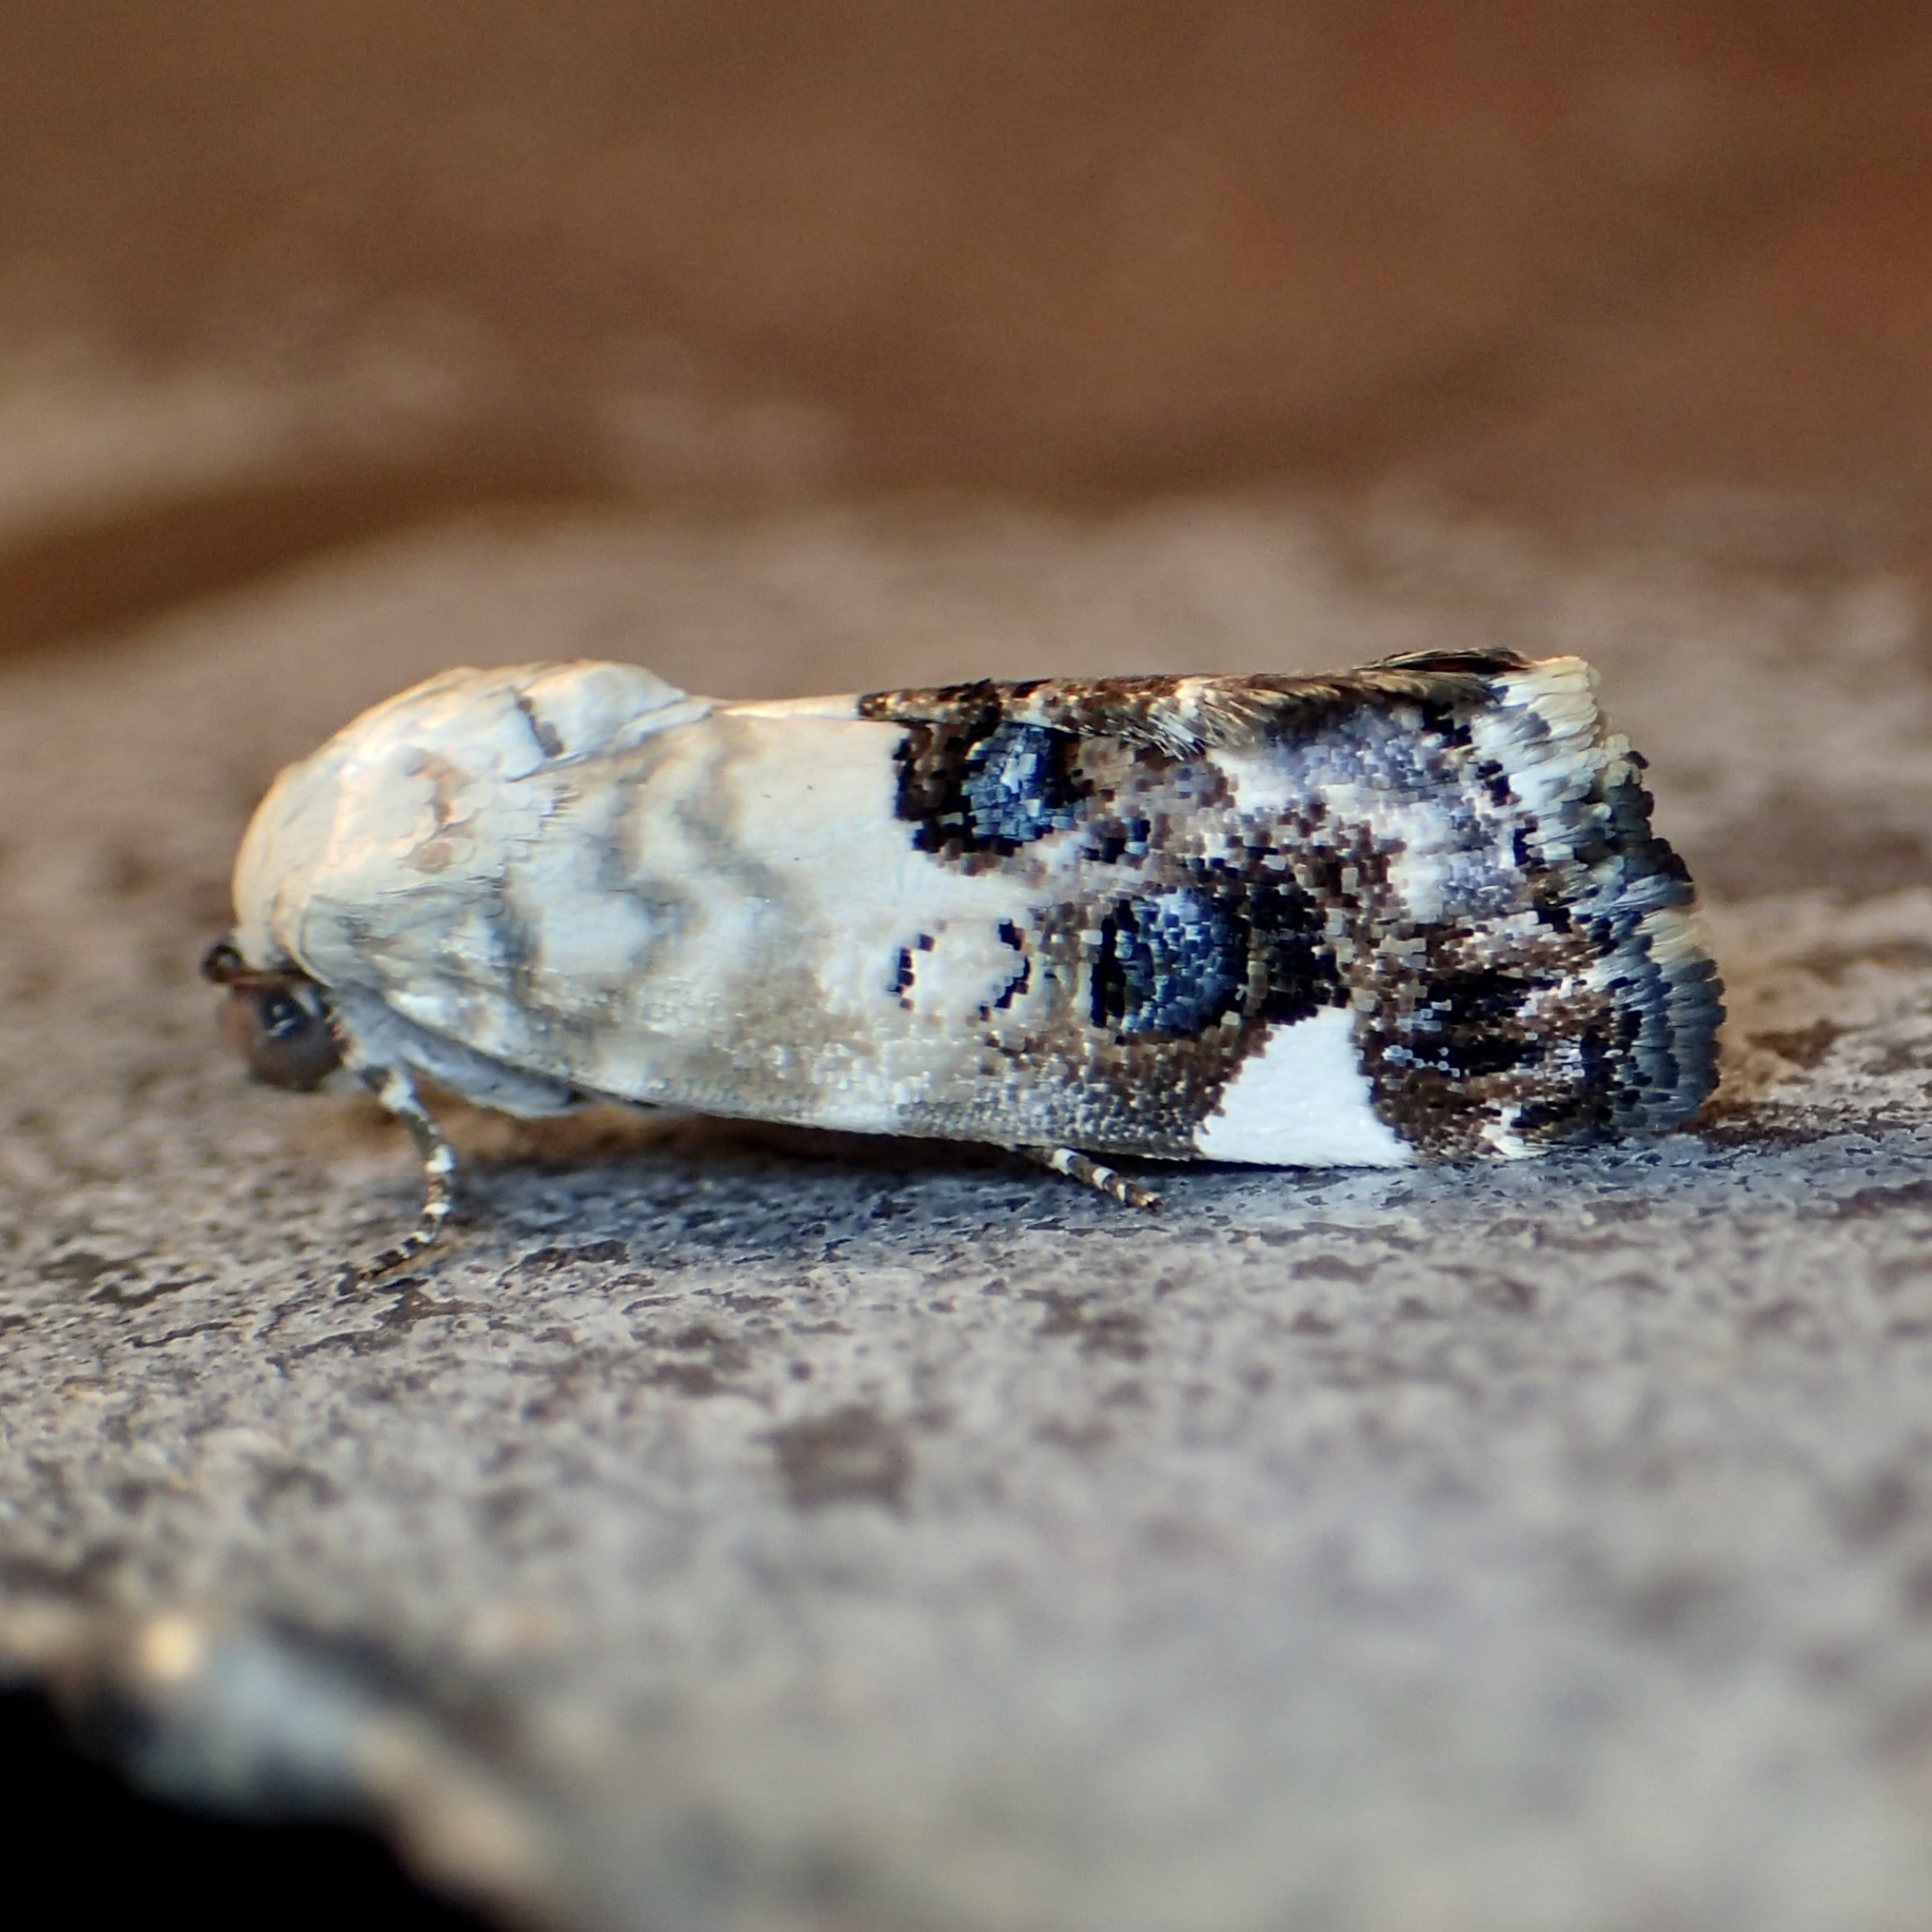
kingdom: Animalia
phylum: Arthropoda
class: Insecta
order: Lepidoptera
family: Noctuidae
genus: Acontia
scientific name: Acontia geminocula
